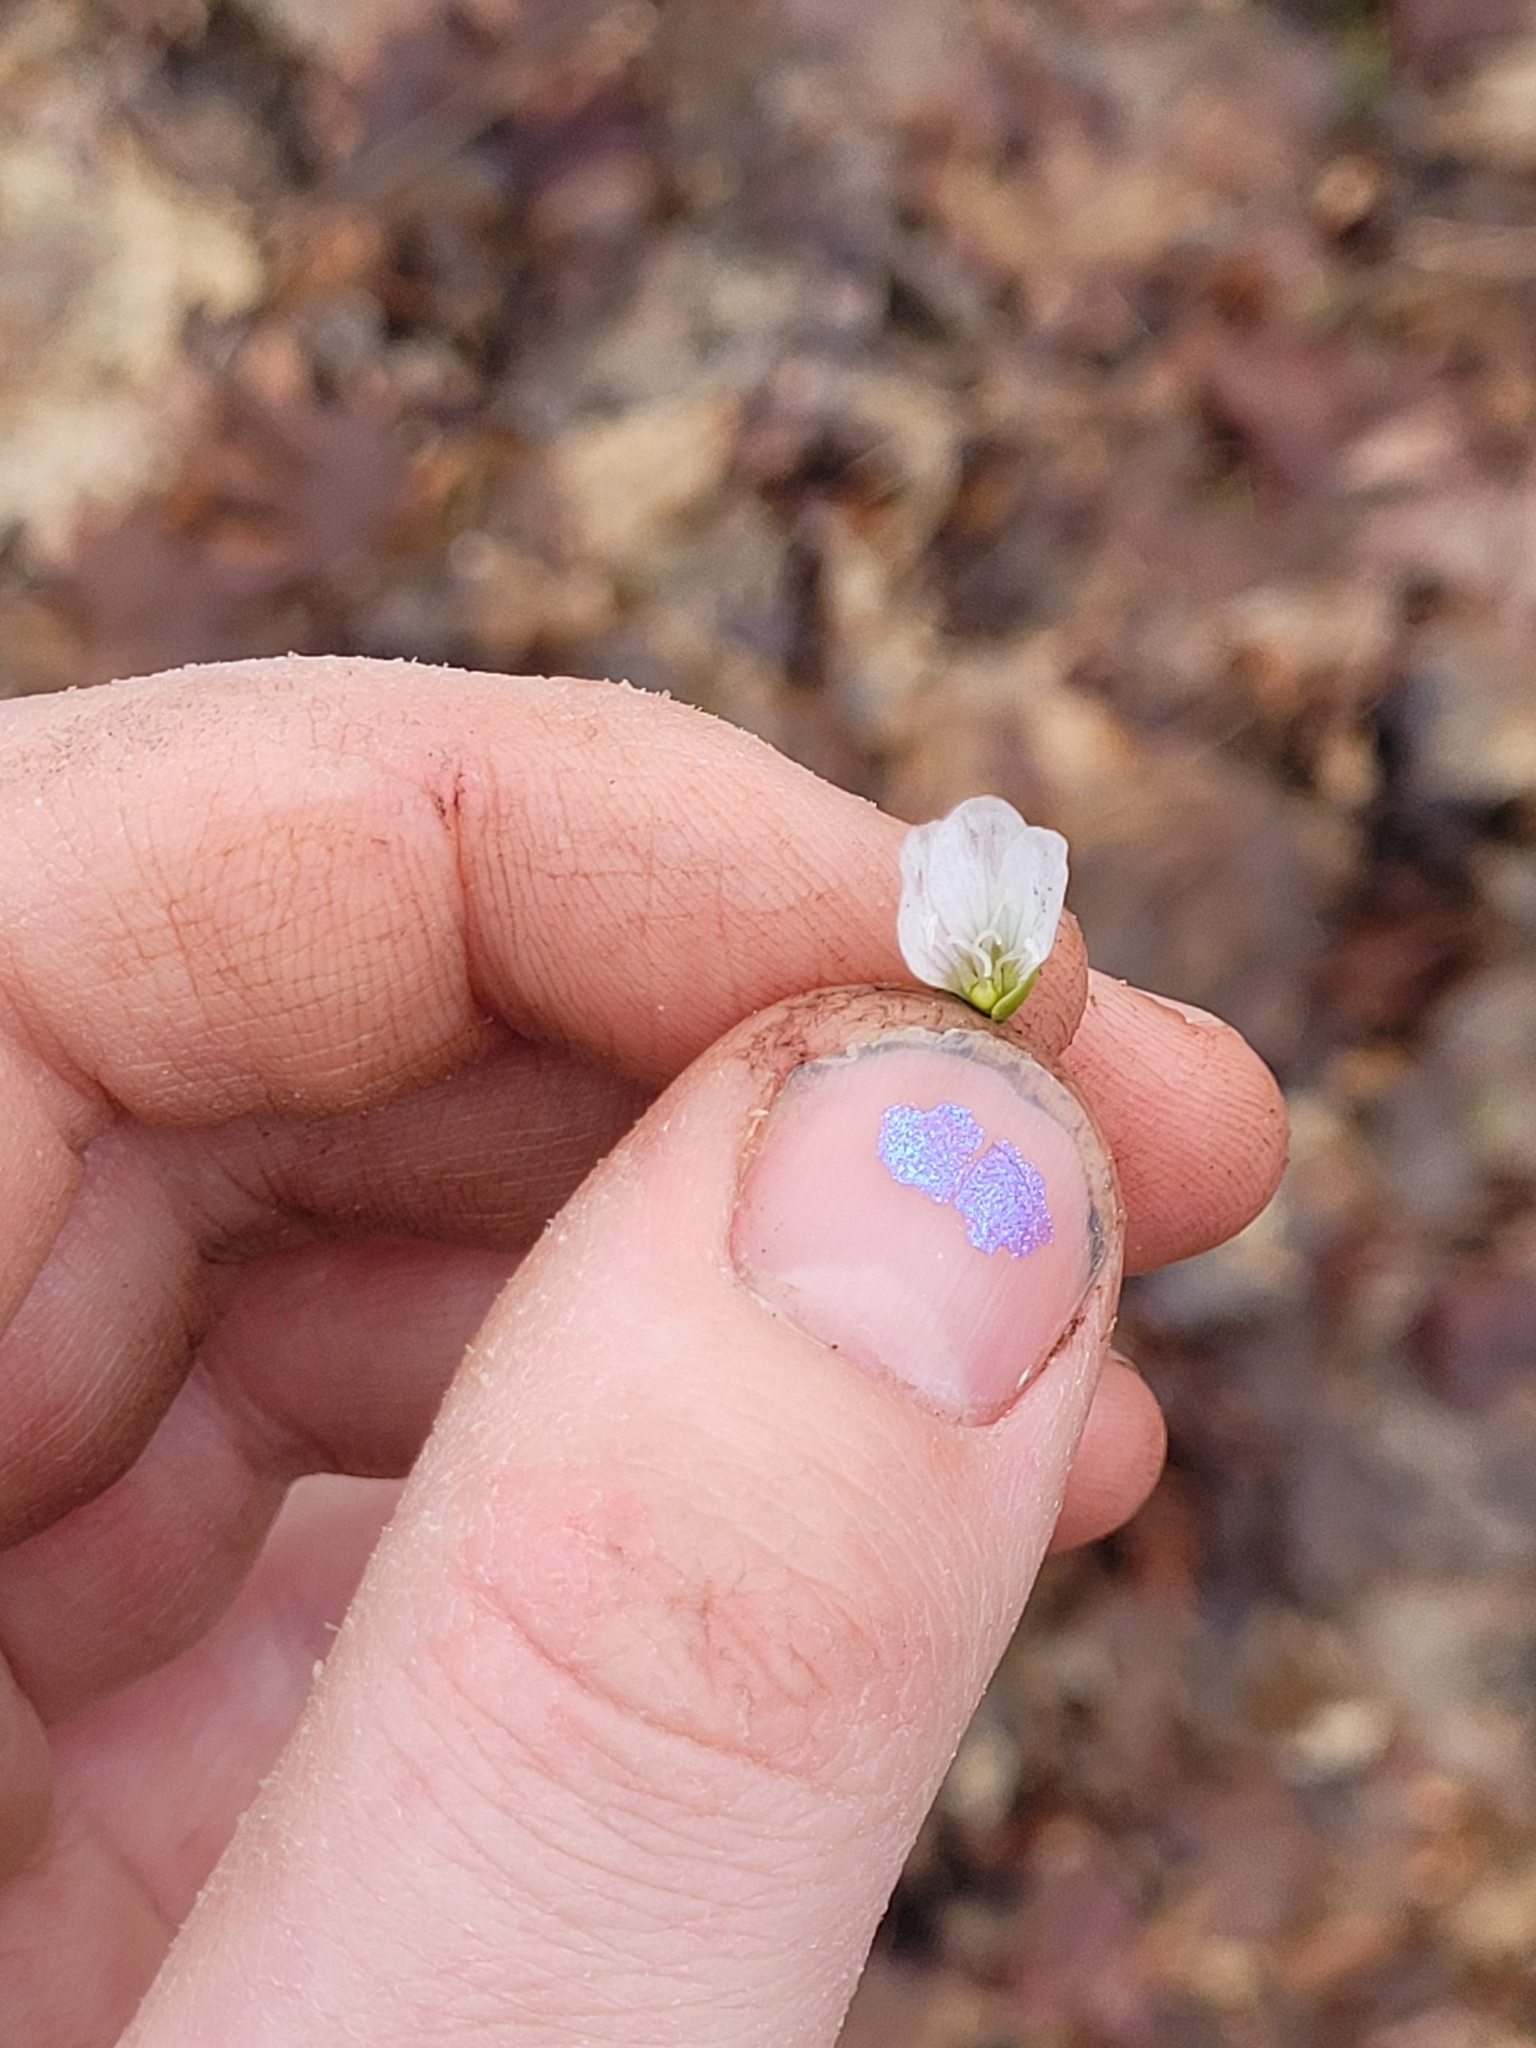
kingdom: Plantae
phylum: Tracheophyta
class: Magnoliopsida
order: Caryophyllales
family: Montiaceae
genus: Claytonia
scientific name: Claytonia virginica
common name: Virginia springbeauty
